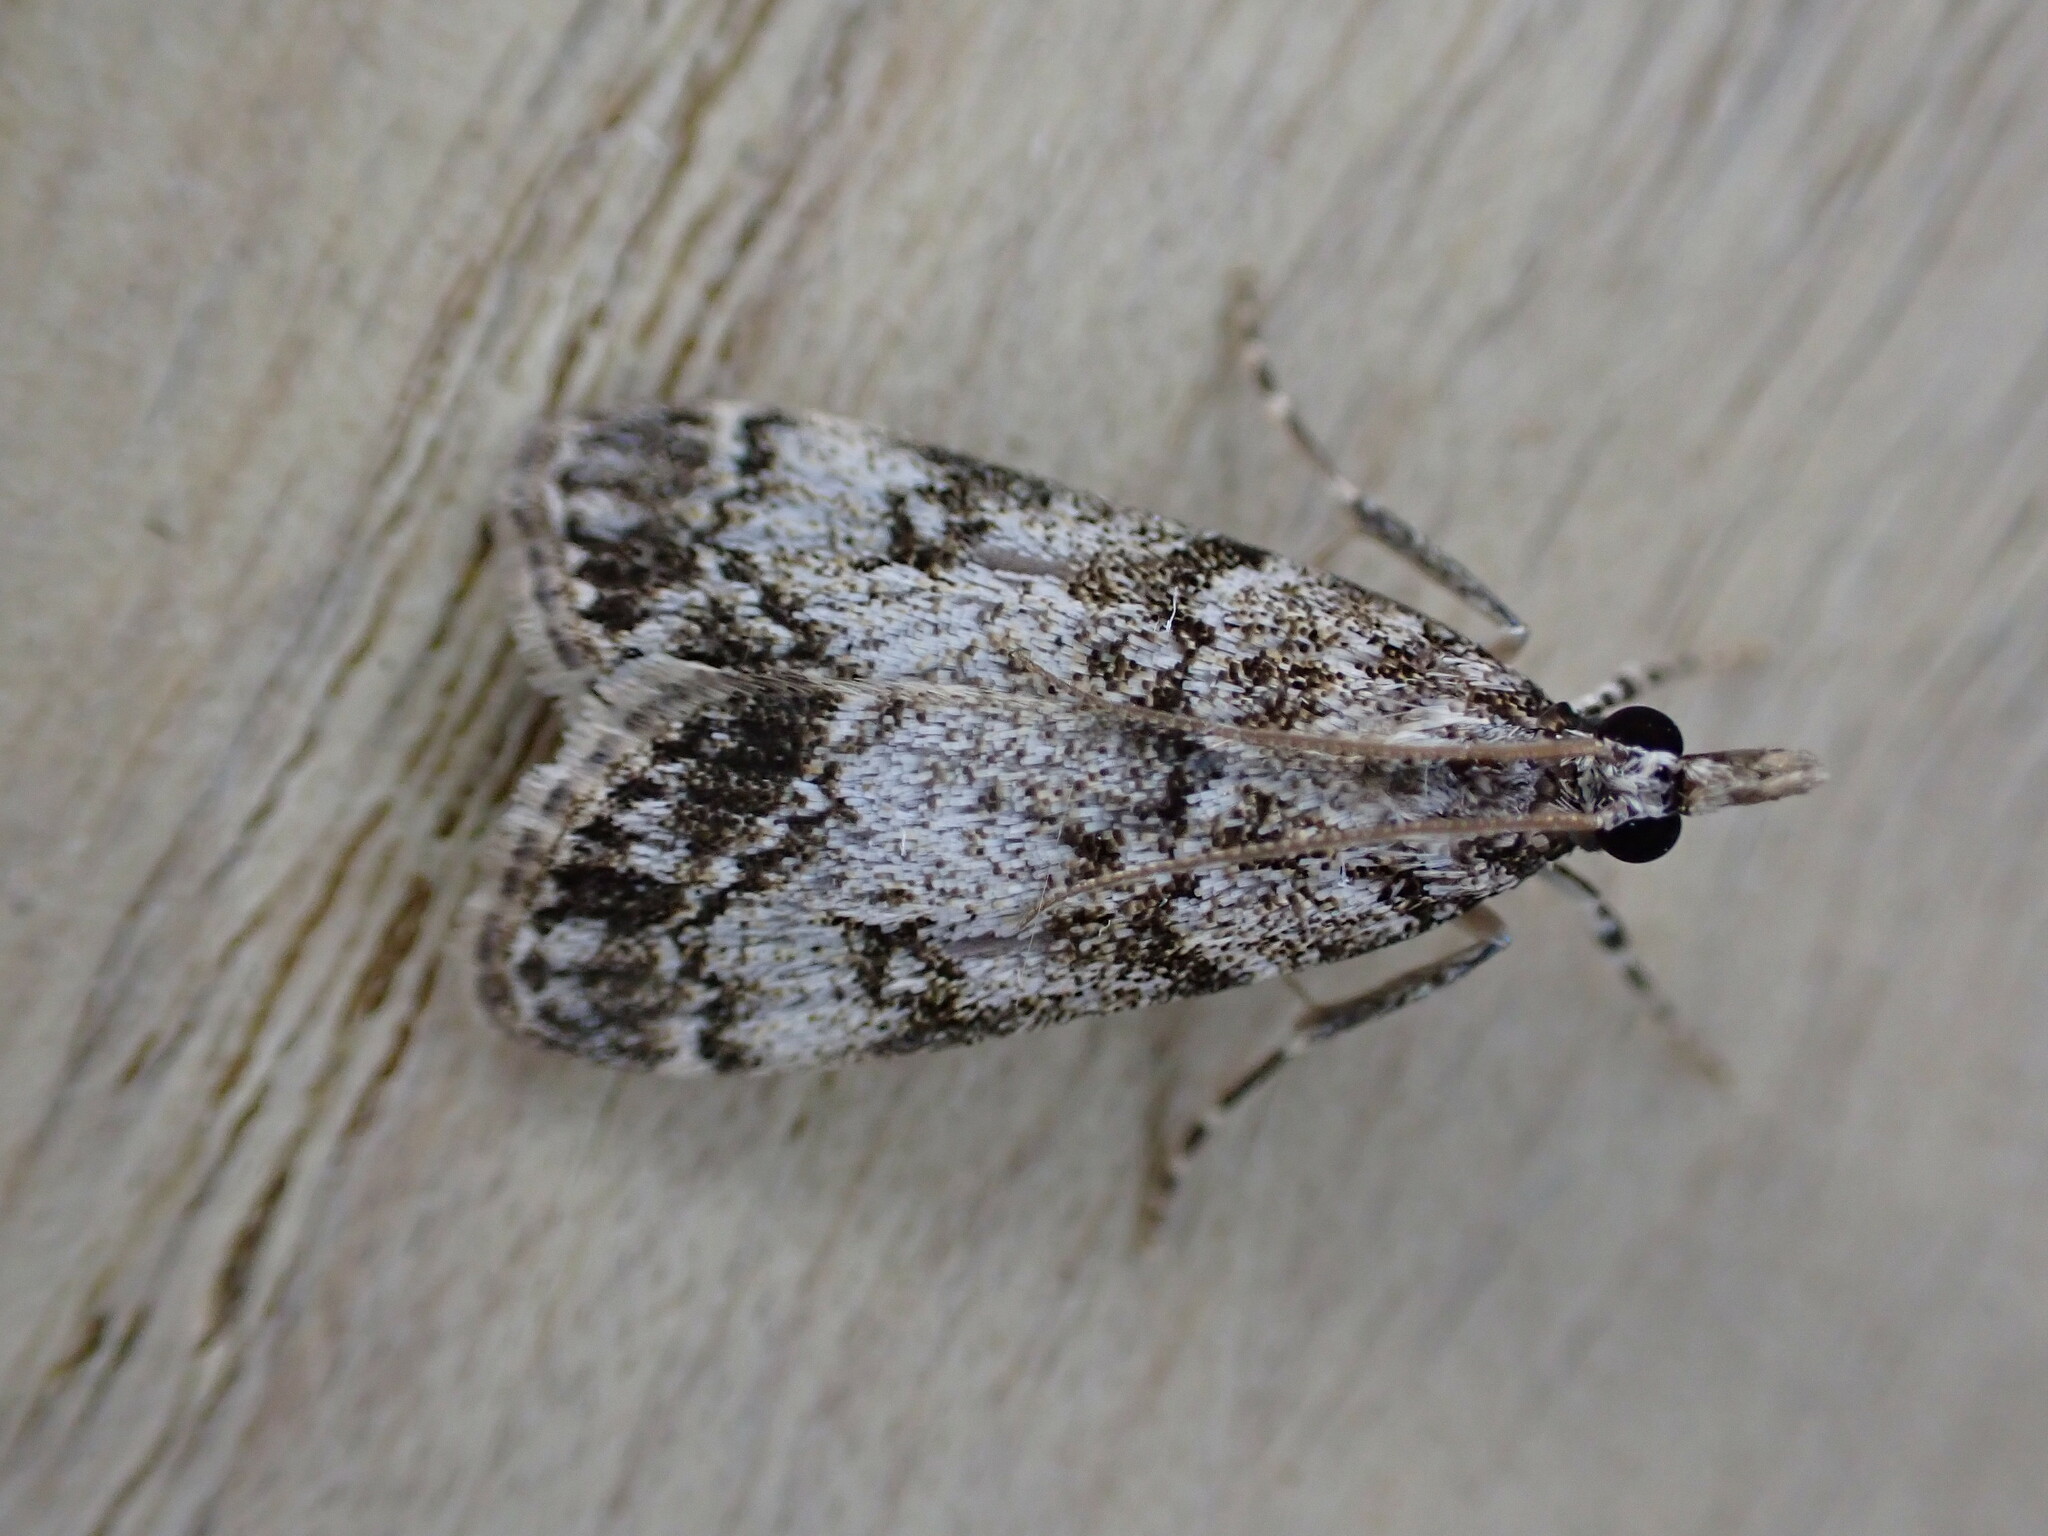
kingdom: Animalia
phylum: Arthropoda
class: Insecta
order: Lepidoptera
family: Crambidae
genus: Eudonia
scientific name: Eudonia lacustrata
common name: Little grey
